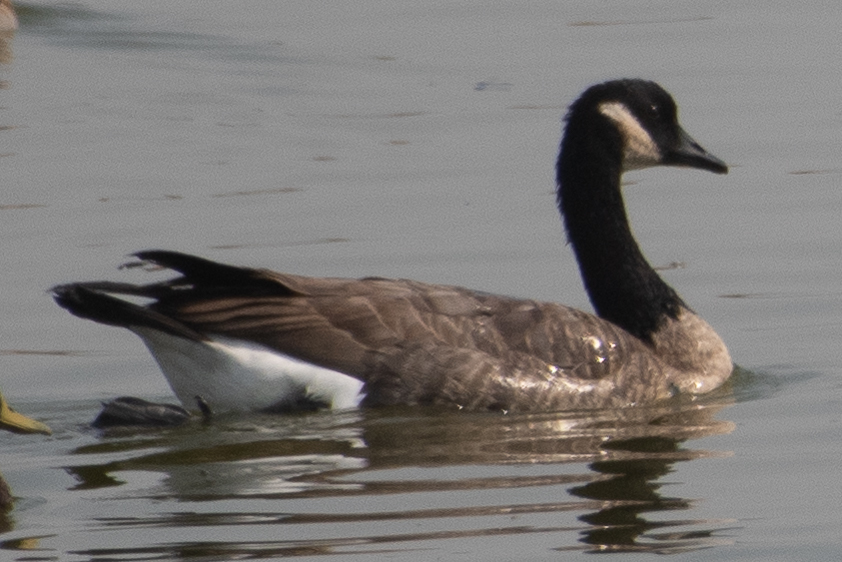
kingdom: Animalia
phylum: Chordata
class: Aves
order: Anseriformes
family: Anatidae
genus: Branta
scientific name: Branta canadensis
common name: Canada goose
